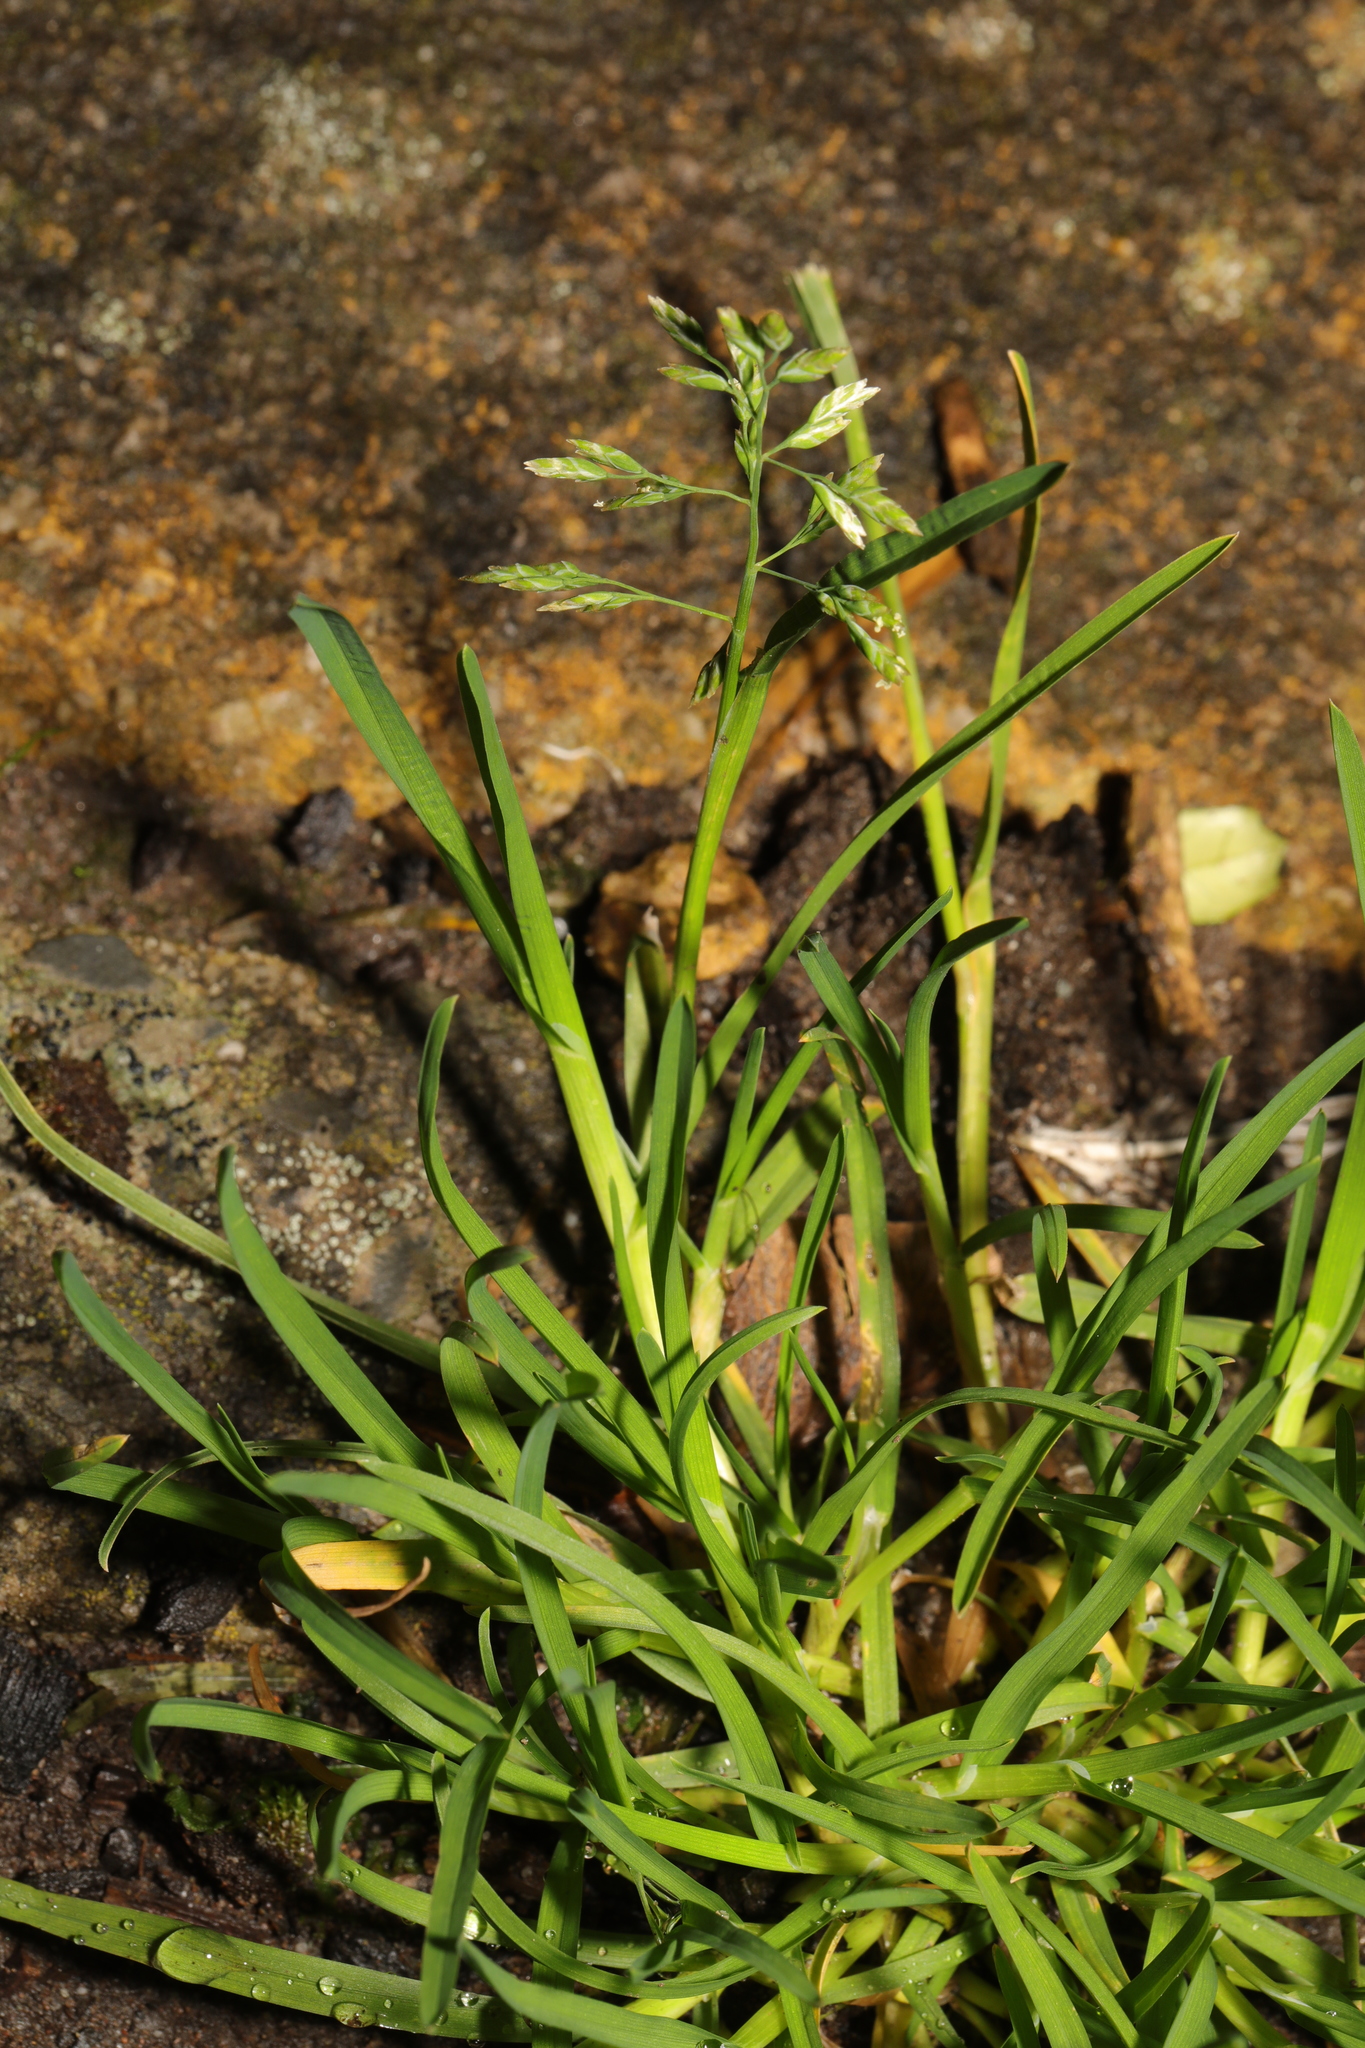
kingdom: Plantae
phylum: Tracheophyta
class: Liliopsida
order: Poales
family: Poaceae
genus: Poa
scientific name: Poa annua
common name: Annual bluegrass
